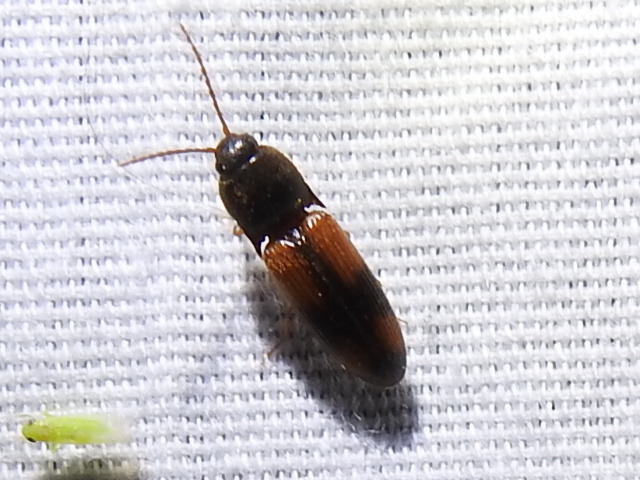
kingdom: Animalia
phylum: Arthropoda
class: Insecta
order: Coleoptera
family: Elateridae
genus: Anchastus
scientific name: Anchastus binus
